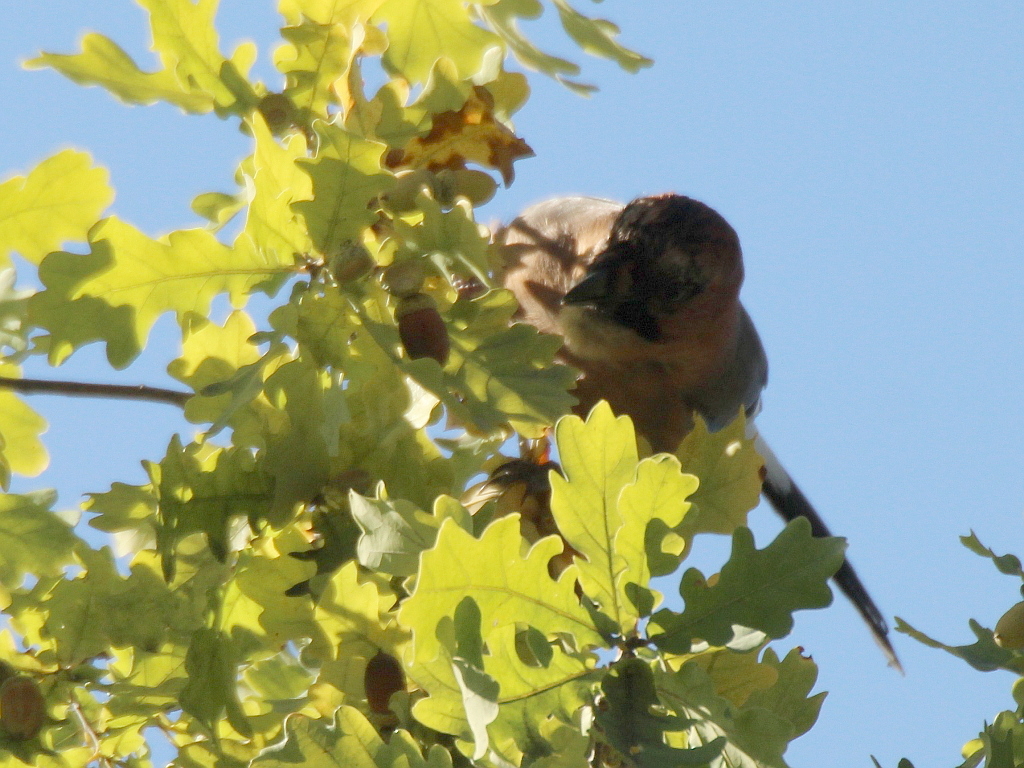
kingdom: Animalia
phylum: Chordata
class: Aves
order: Passeriformes
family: Corvidae
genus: Garrulus
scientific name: Garrulus glandarius
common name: Eurasian jay
